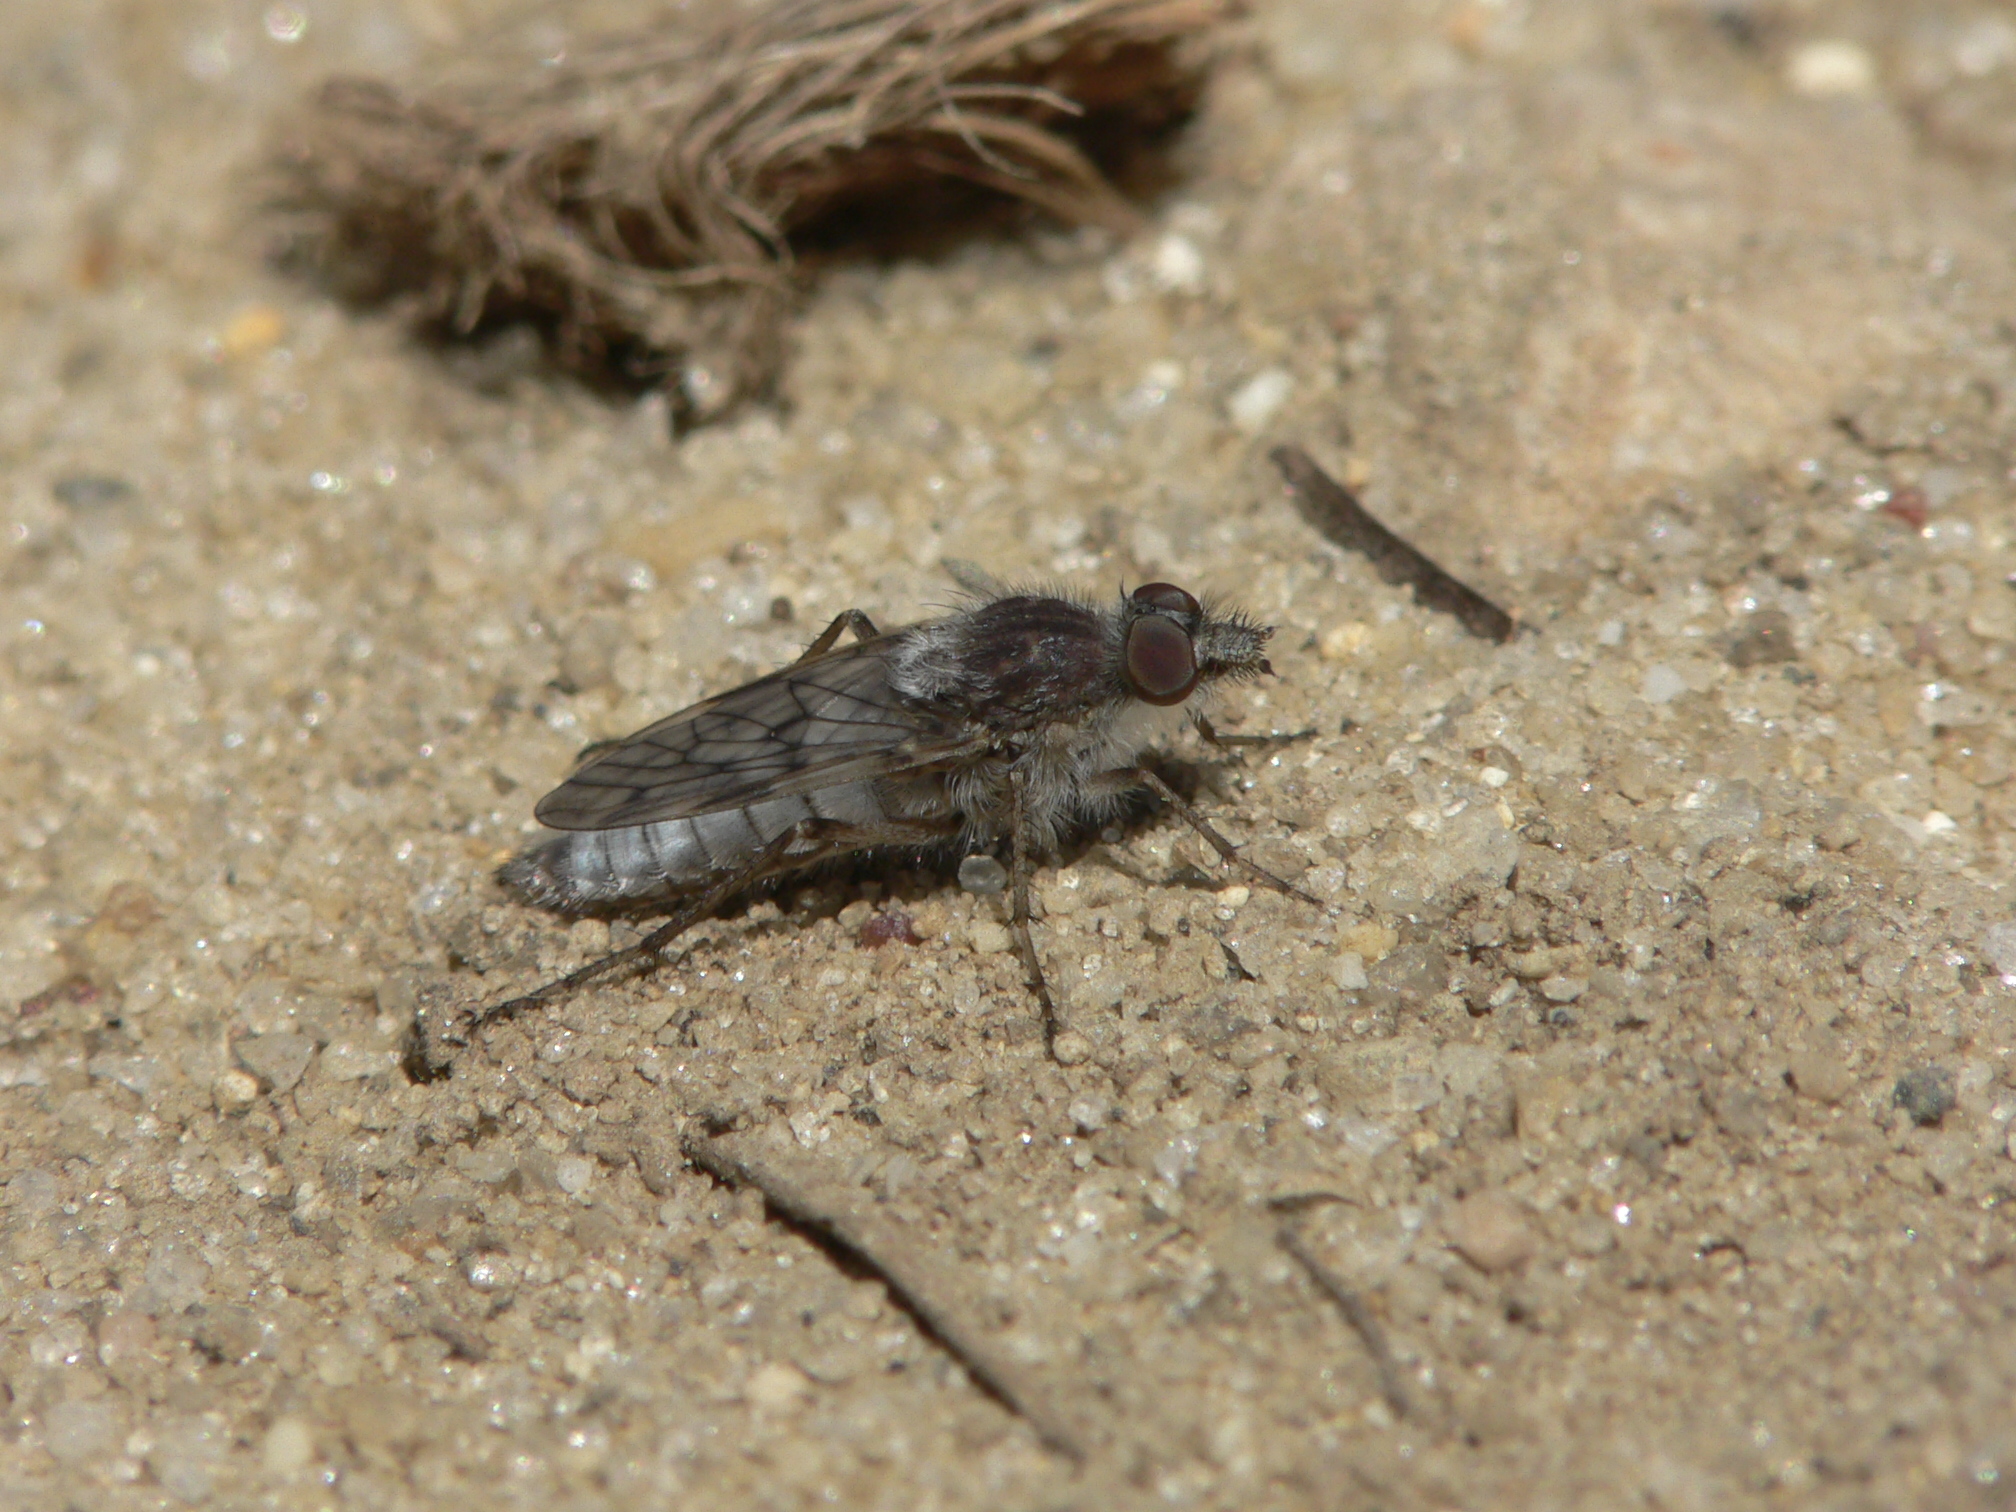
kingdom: Animalia
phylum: Arthropoda
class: Insecta
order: Diptera
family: Therevidae
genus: Tabuda
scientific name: Tabuda varia
